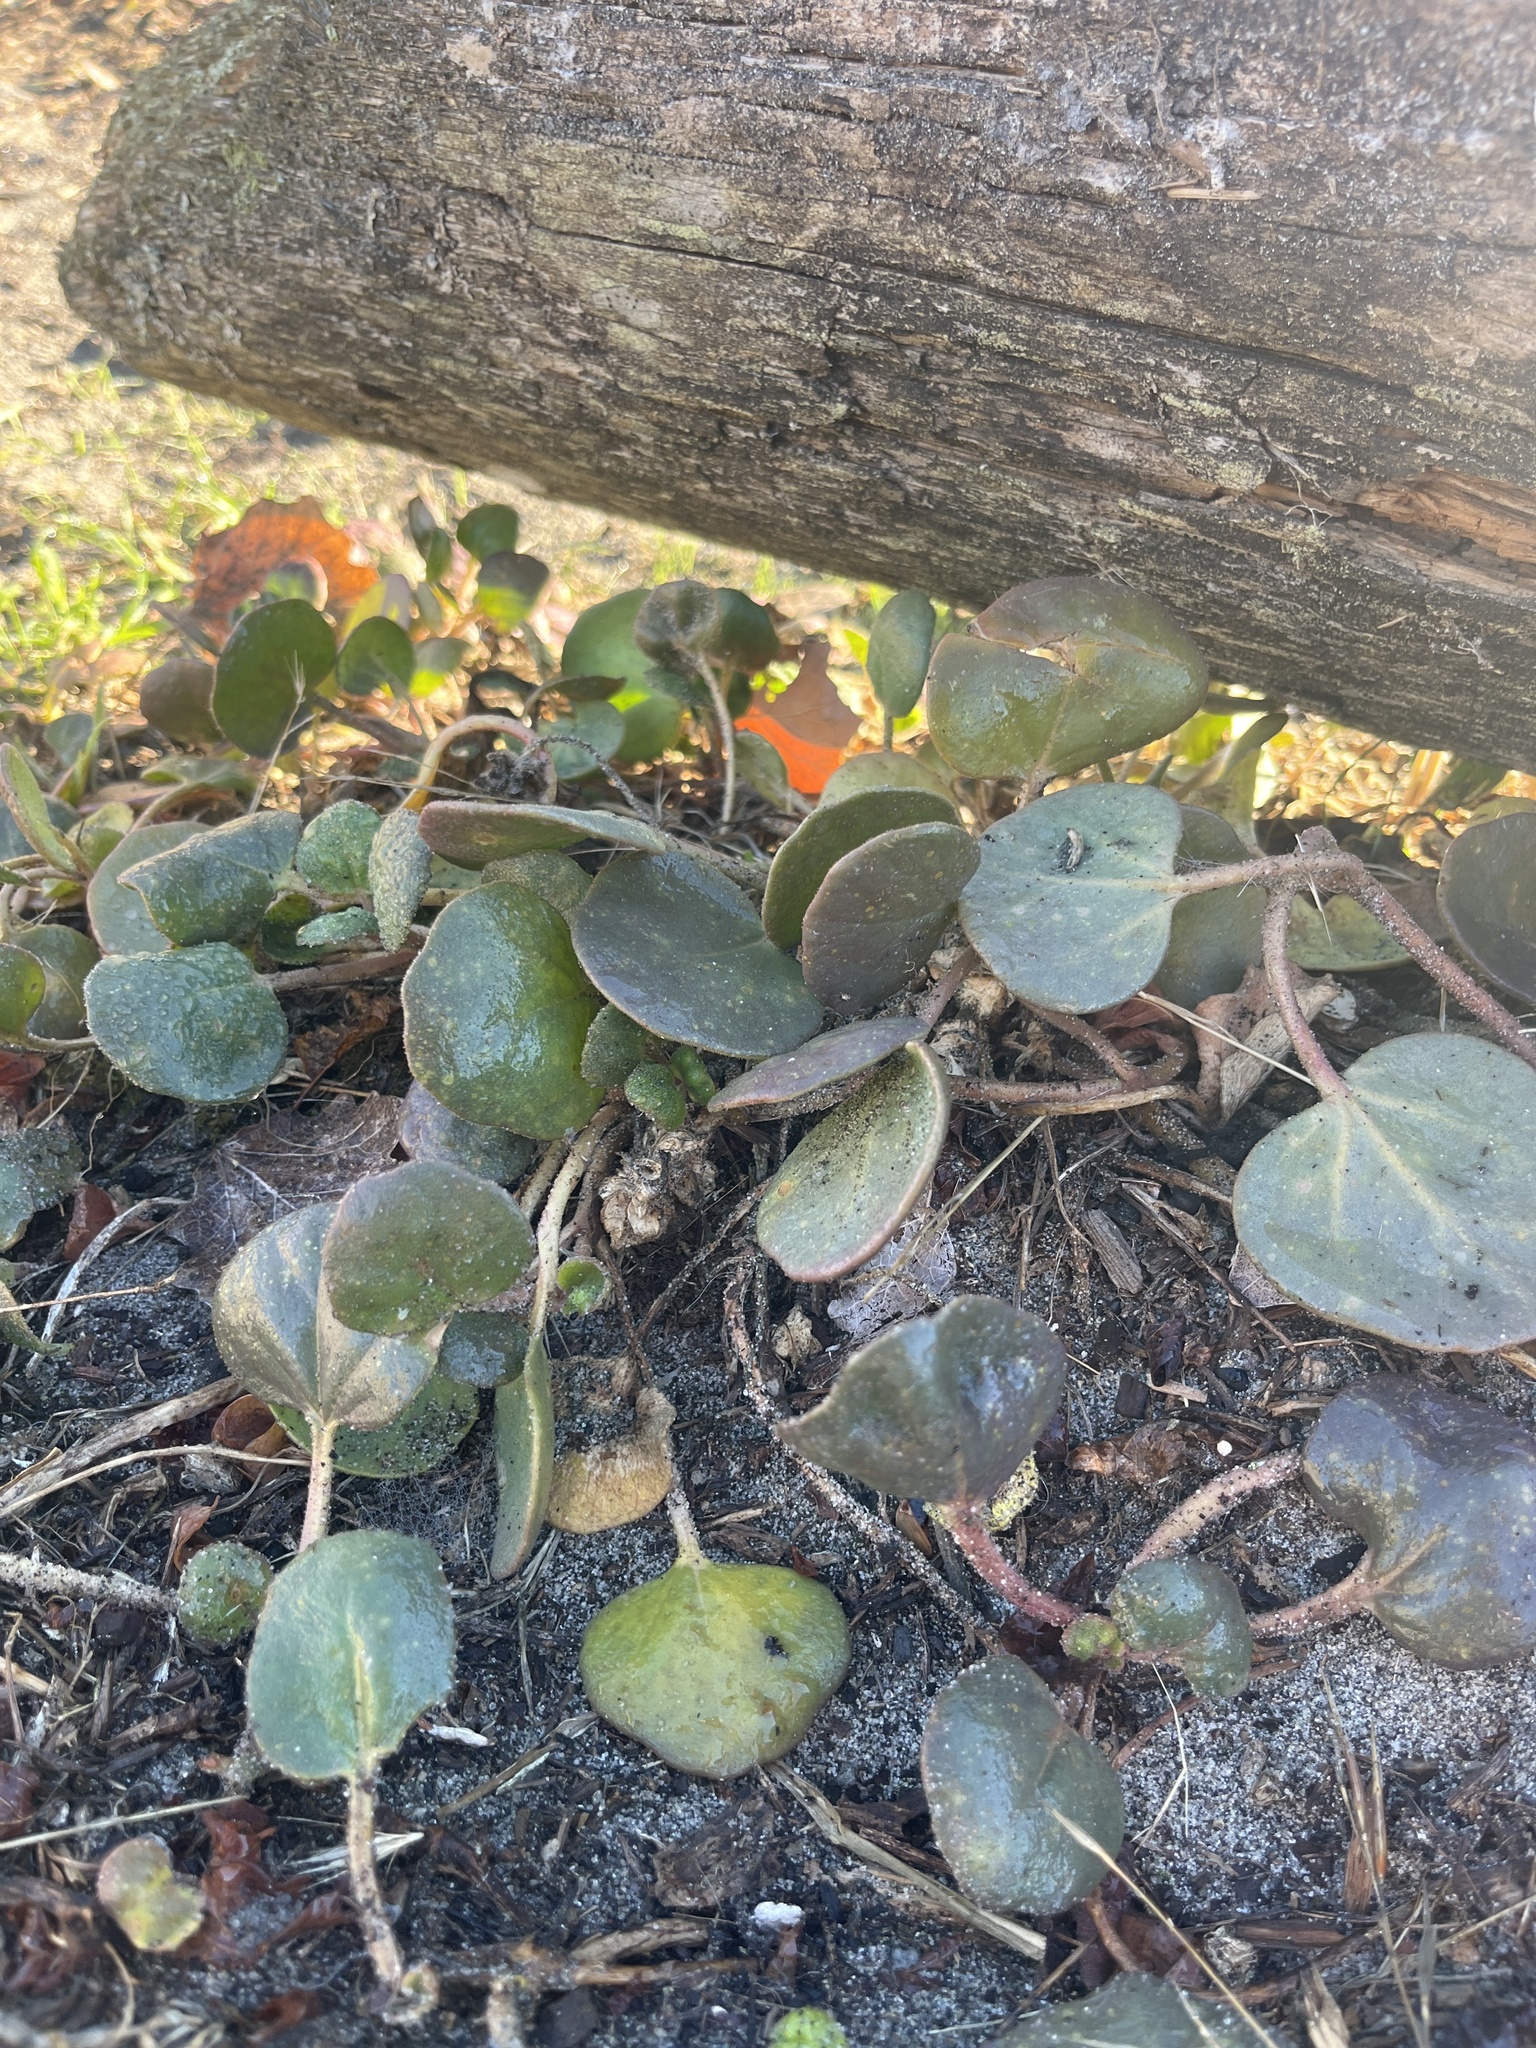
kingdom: Plantae
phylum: Tracheophyta
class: Magnoliopsida
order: Caryophyllales
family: Nyctaginaceae
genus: Abronia
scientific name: Abronia latifolia
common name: Yellow sand-verbena
